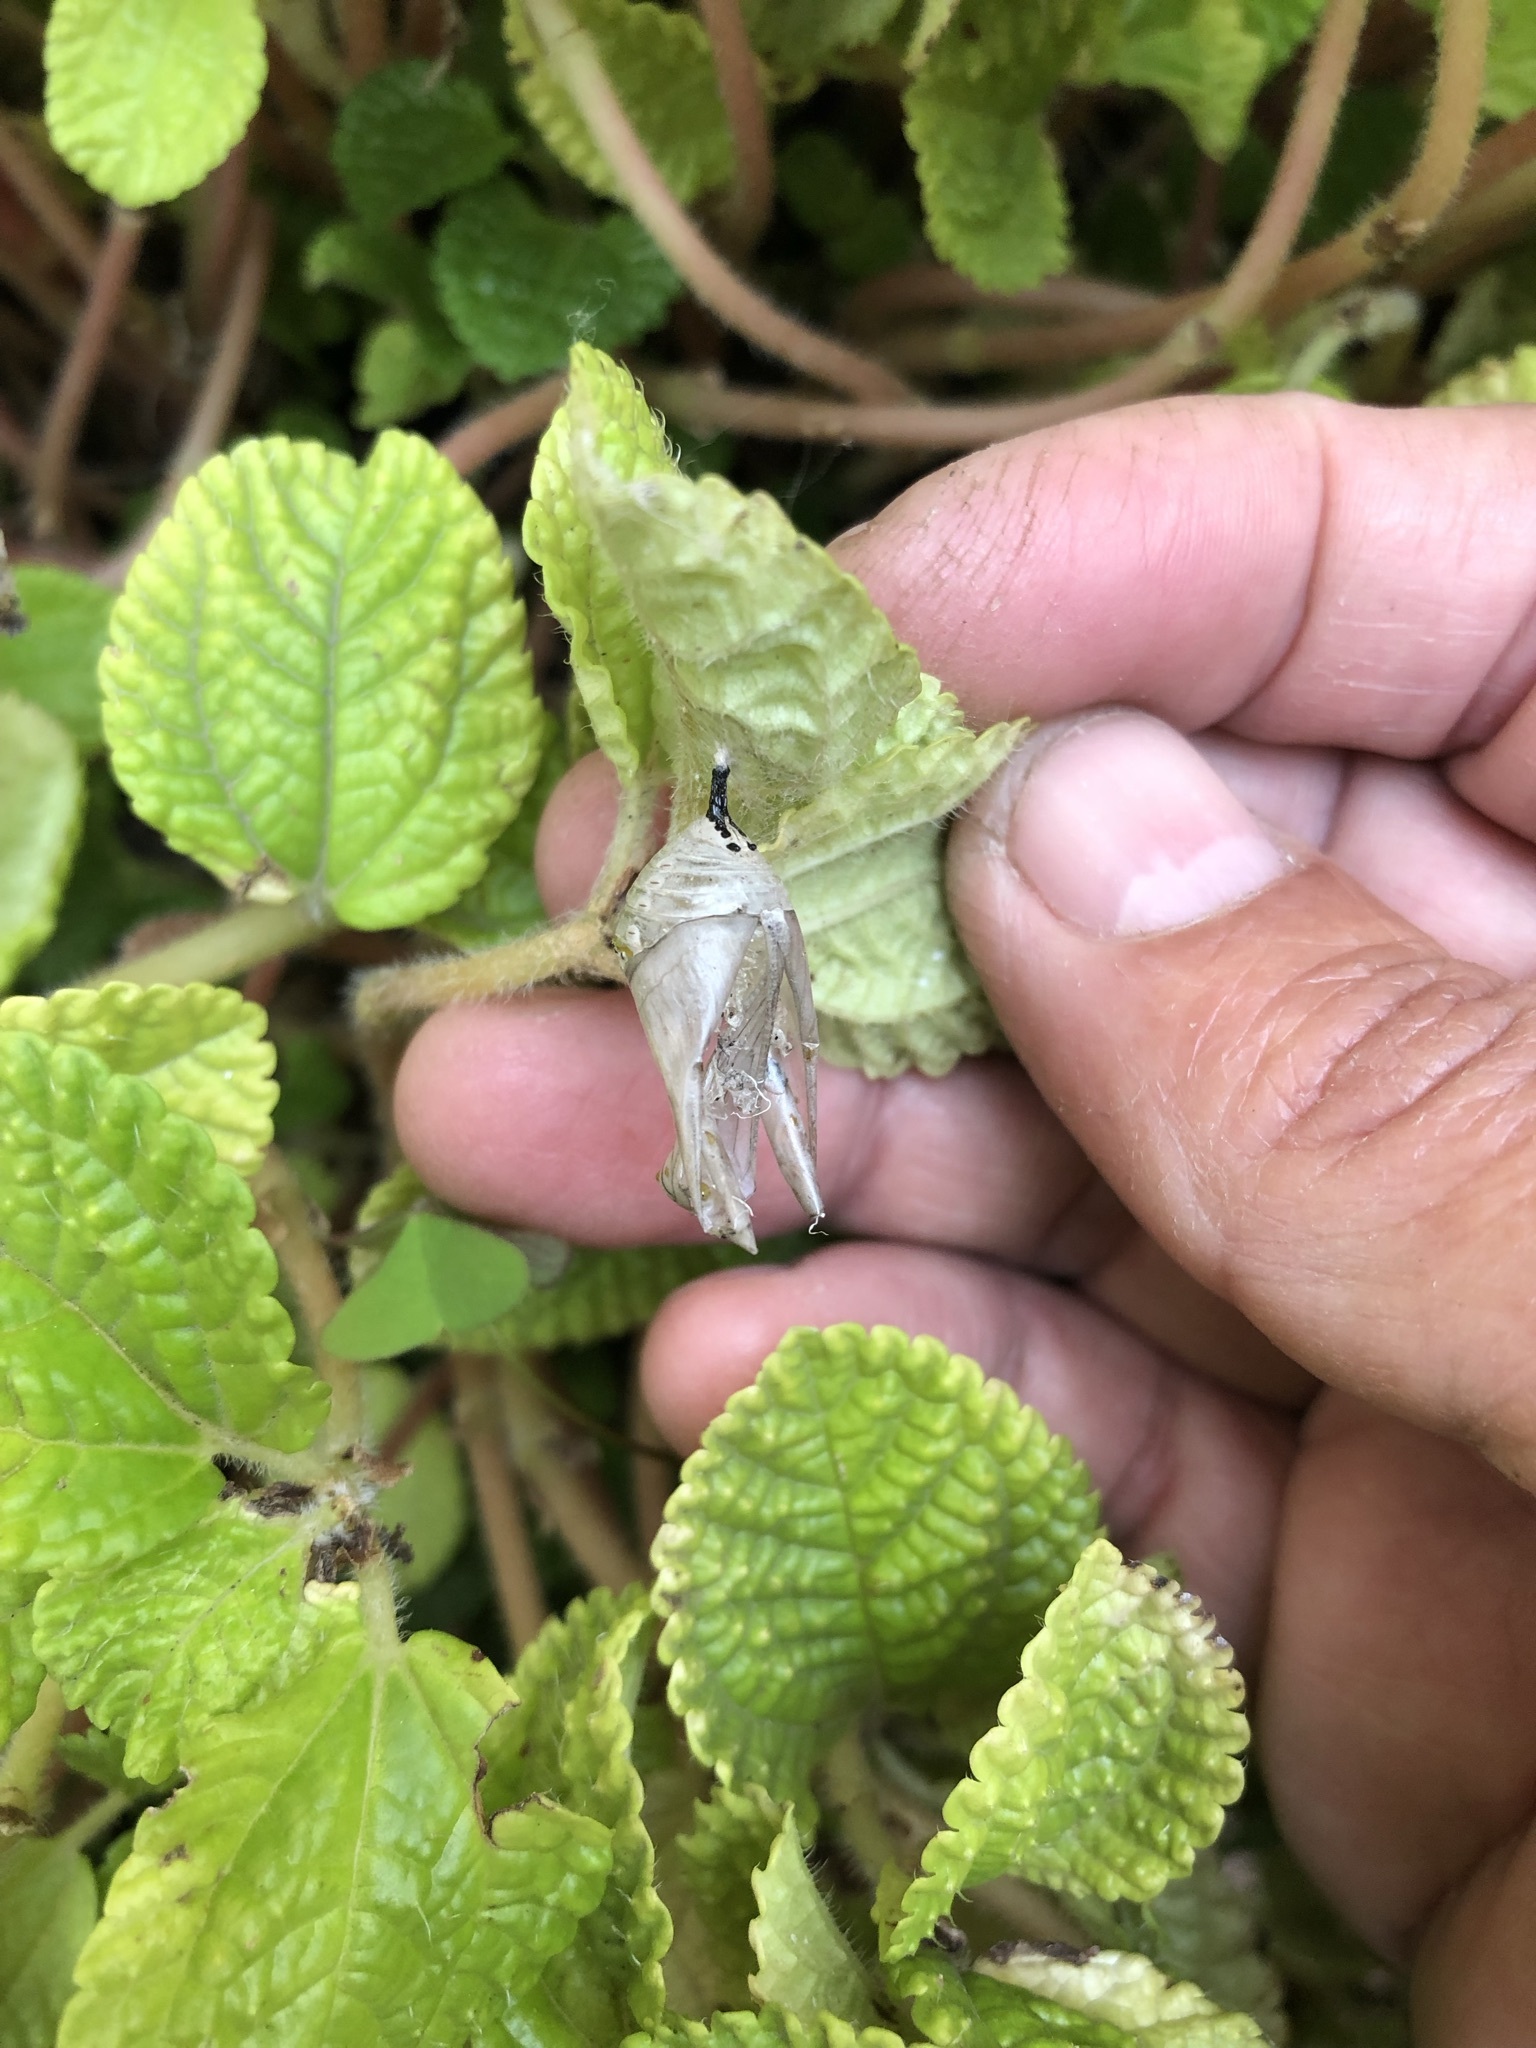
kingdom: Animalia
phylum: Arthropoda
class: Insecta
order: Lepidoptera
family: Nymphalidae
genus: Danaus
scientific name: Danaus plexippus
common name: Monarch
